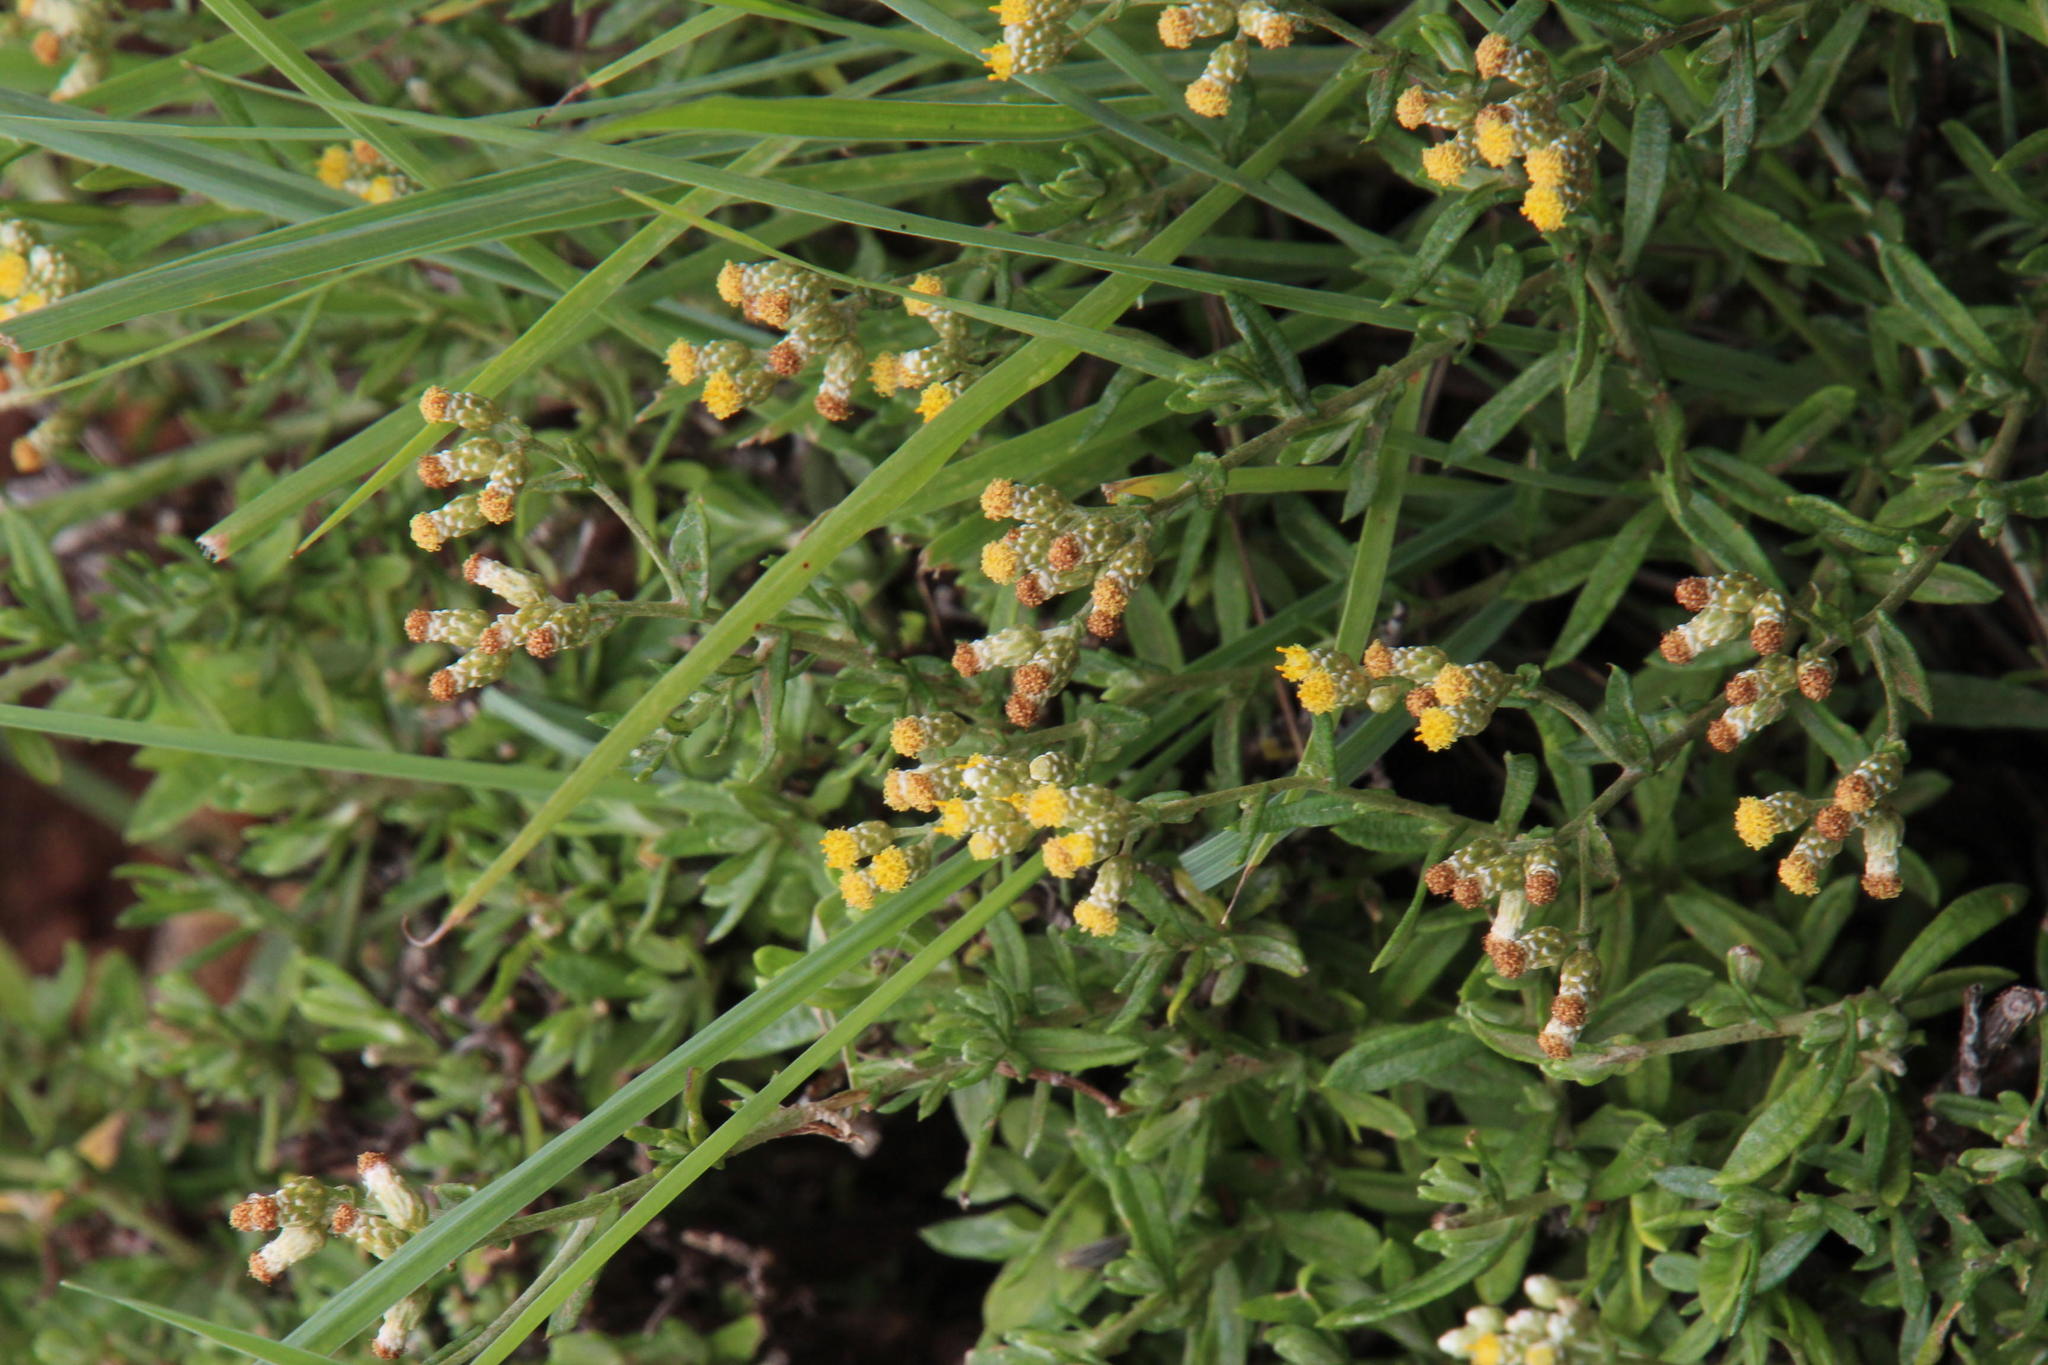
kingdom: Plantae
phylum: Tracheophyta
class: Magnoliopsida
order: Asterales
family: Asteraceae
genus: Helichrysum
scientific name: Helichrysum dregeanum
